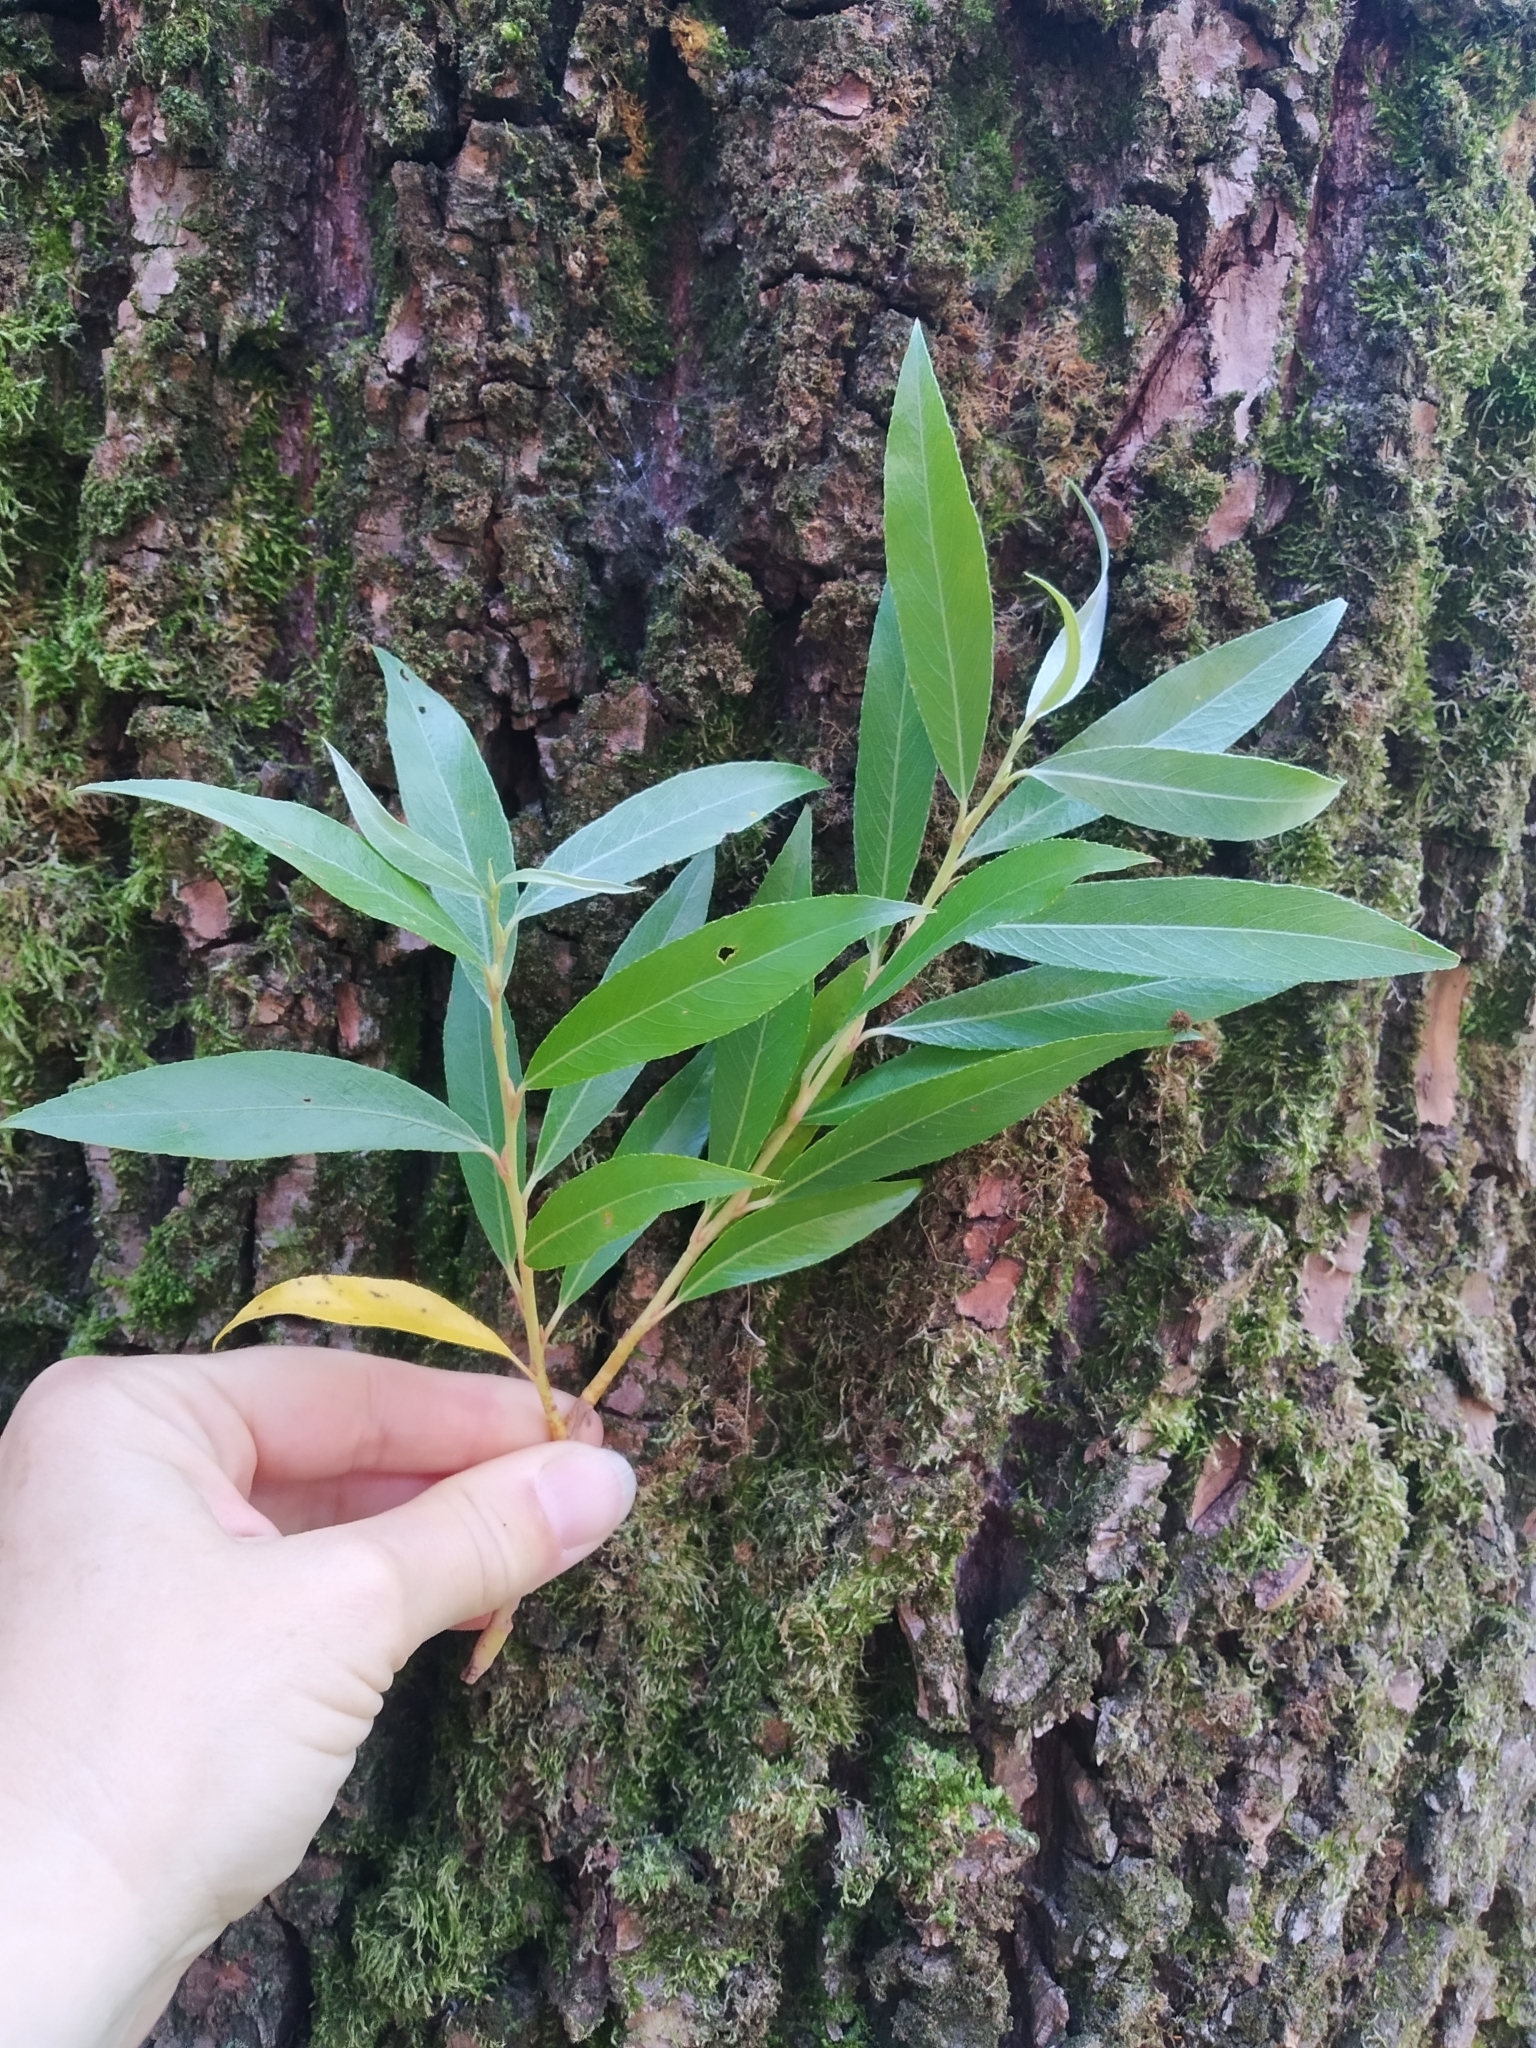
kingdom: Plantae
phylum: Tracheophyta
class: Magnoliopsida
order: Malpighiales
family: Salicaceae
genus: Salix
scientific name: Salix alba
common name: White willow
